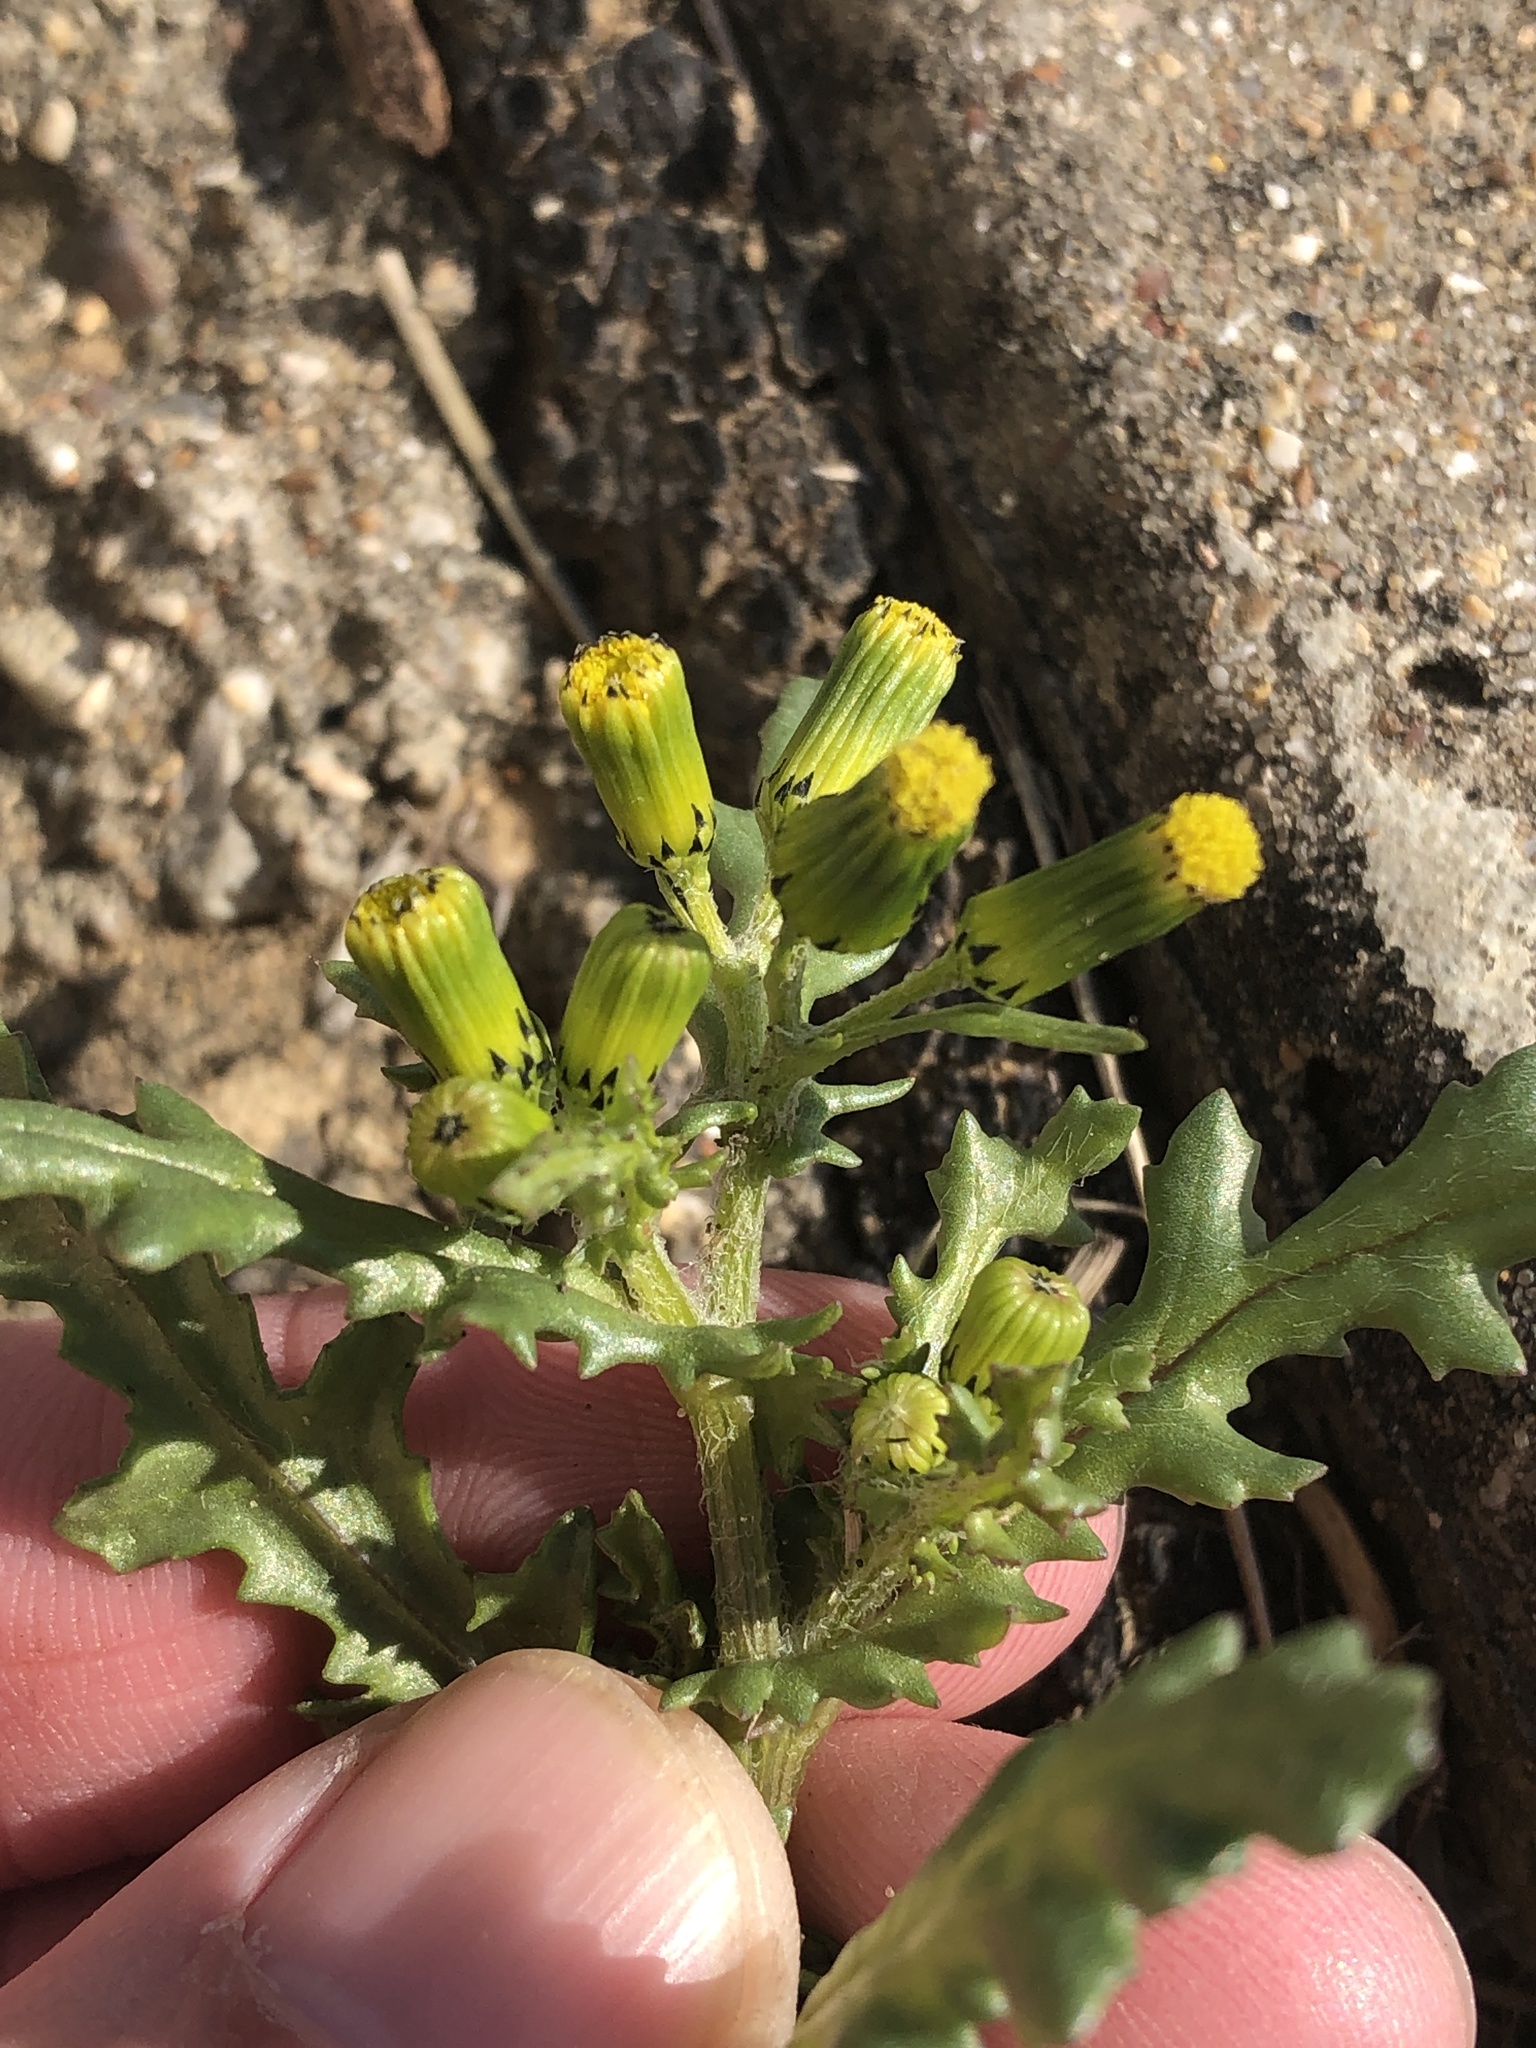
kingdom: Plantae
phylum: Tracheophyta
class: Magnoliopsida
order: Asterales
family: Asteraceae
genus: Senecio
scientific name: Senecio vulgaris
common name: Old-man-in-the-spring
